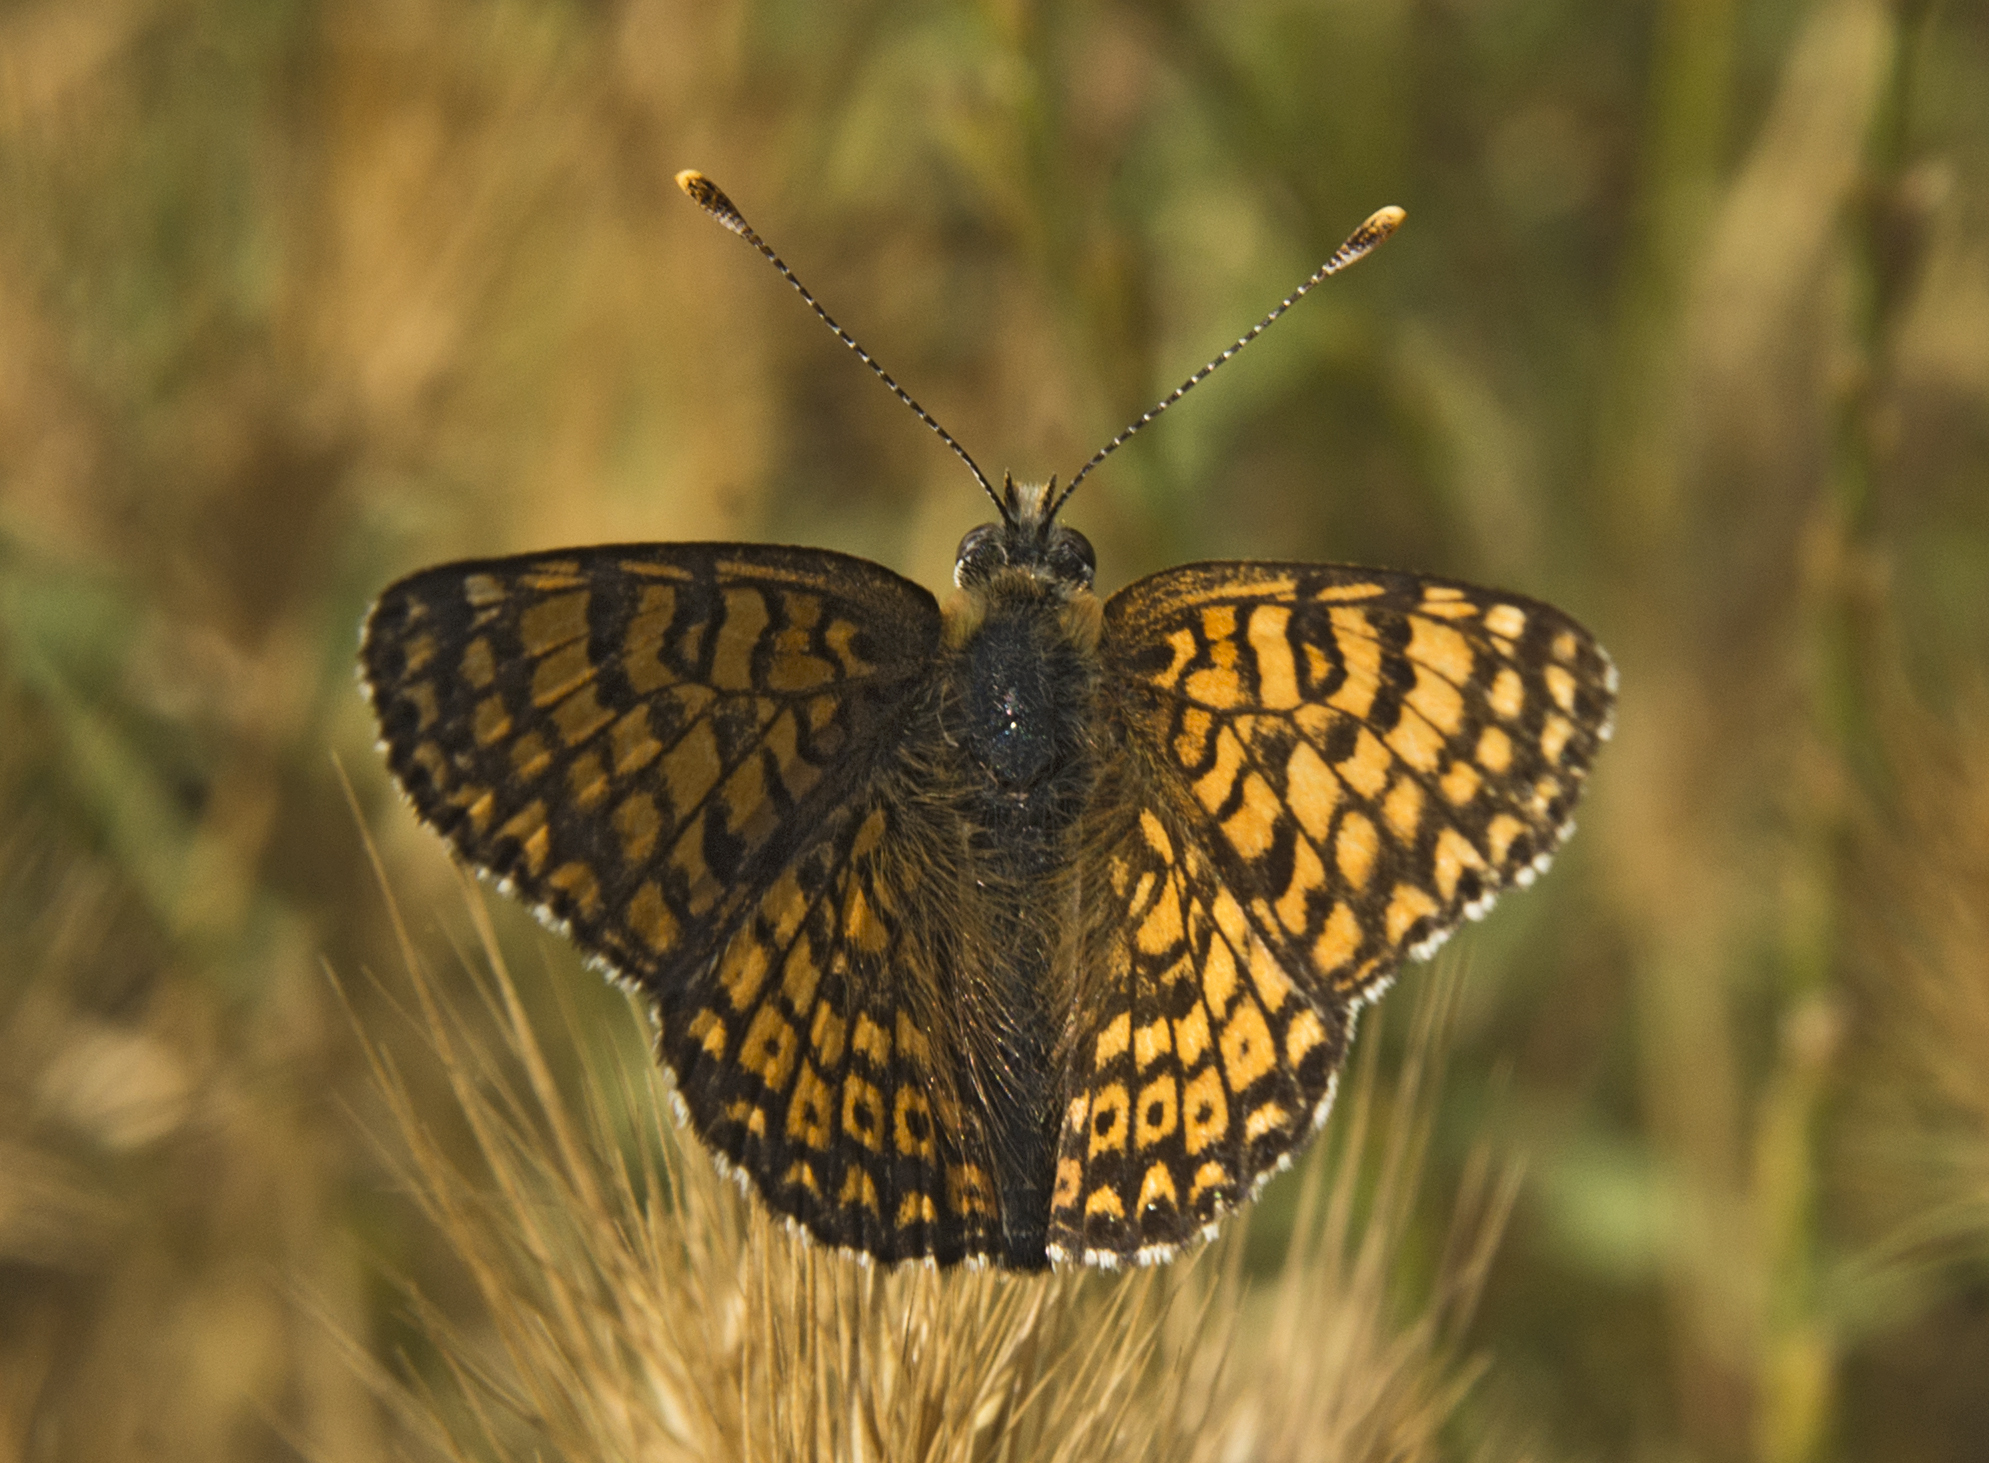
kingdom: Animalia
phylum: Arthropoda
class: Insecta
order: Lepidoptera
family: Nymphalidae
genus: Melitaea
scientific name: Melitaea cinxia
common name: Glanville fritillary
